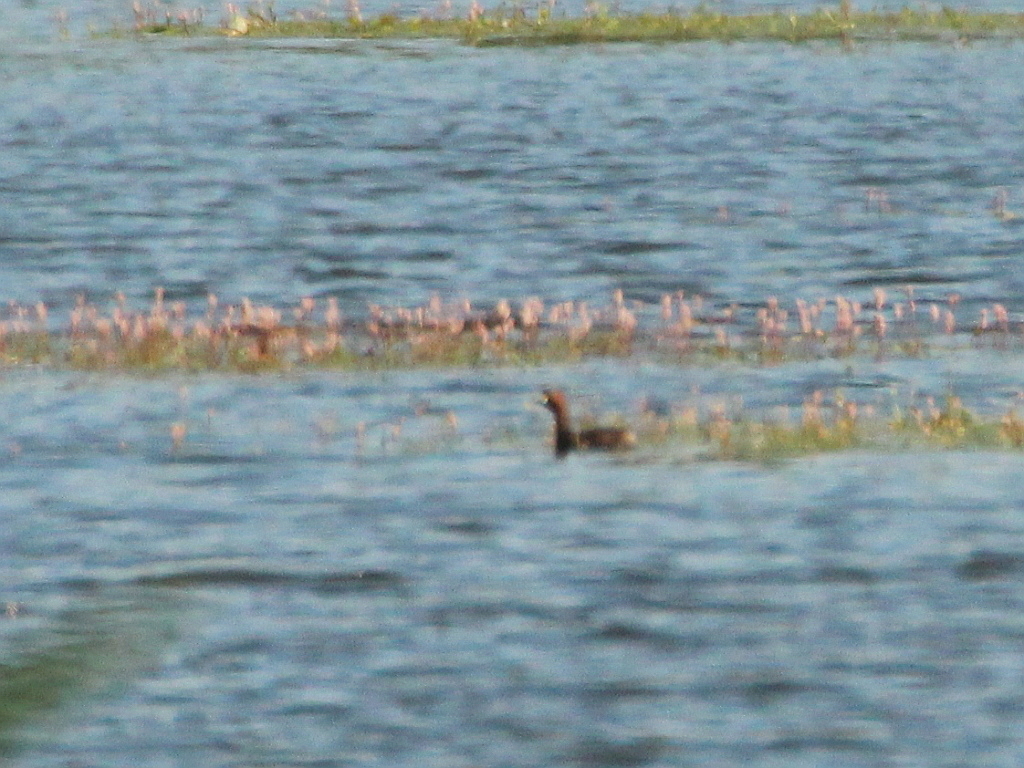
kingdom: Animalia
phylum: Chordata
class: Aves
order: Podicipediformes
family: Podicipedidae
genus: Tachybaptus
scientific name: Tachybaptus ruficollis
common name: Little grebe
